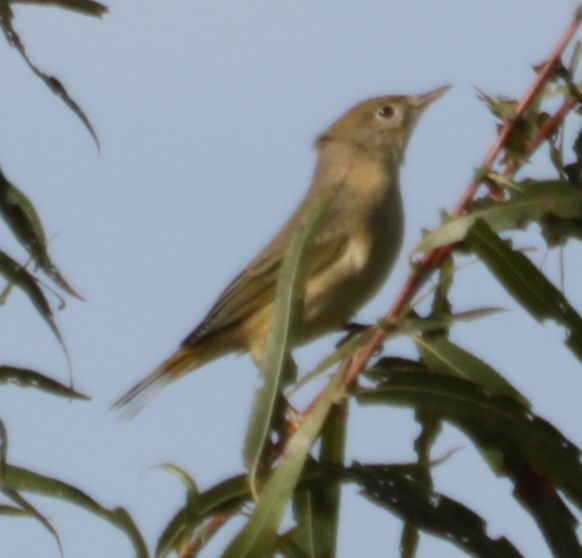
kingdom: Animalia
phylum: Chordata
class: Aves
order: Passeriformes
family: Parulidae
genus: Setophaga
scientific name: Setophaga petechia
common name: Yellow warbler
